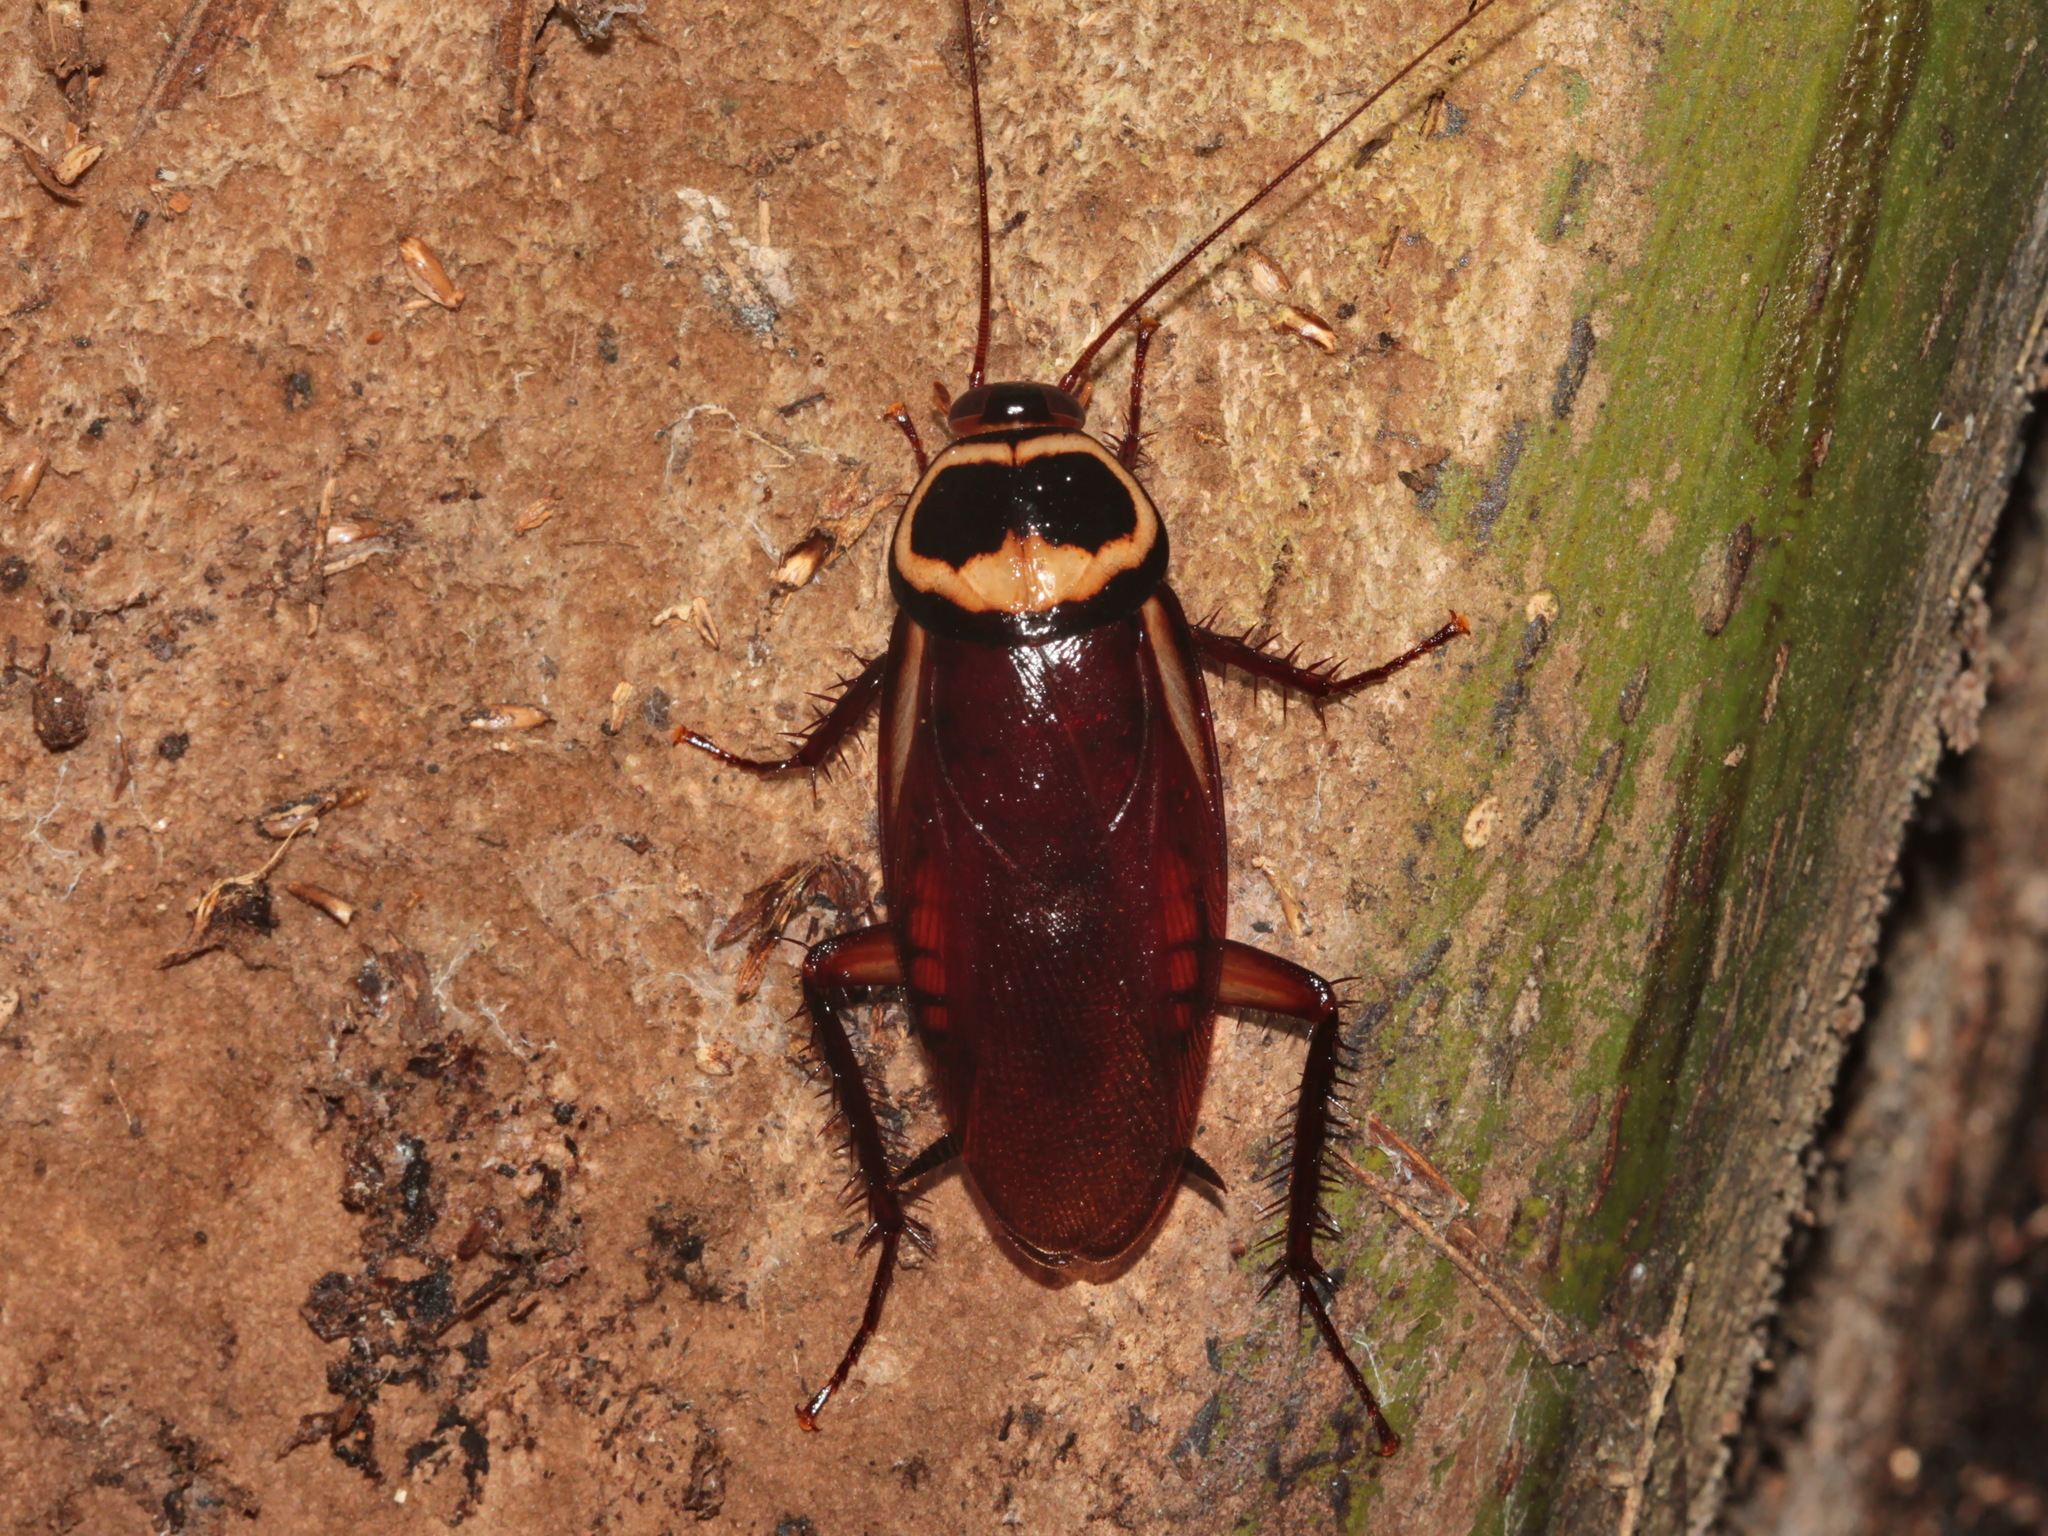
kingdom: Animalia
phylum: Arthropoda
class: Insecta
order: Blattodea
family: Blattidae
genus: Periplaneta
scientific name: Periplaneta australasiae
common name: Australian cockroach
